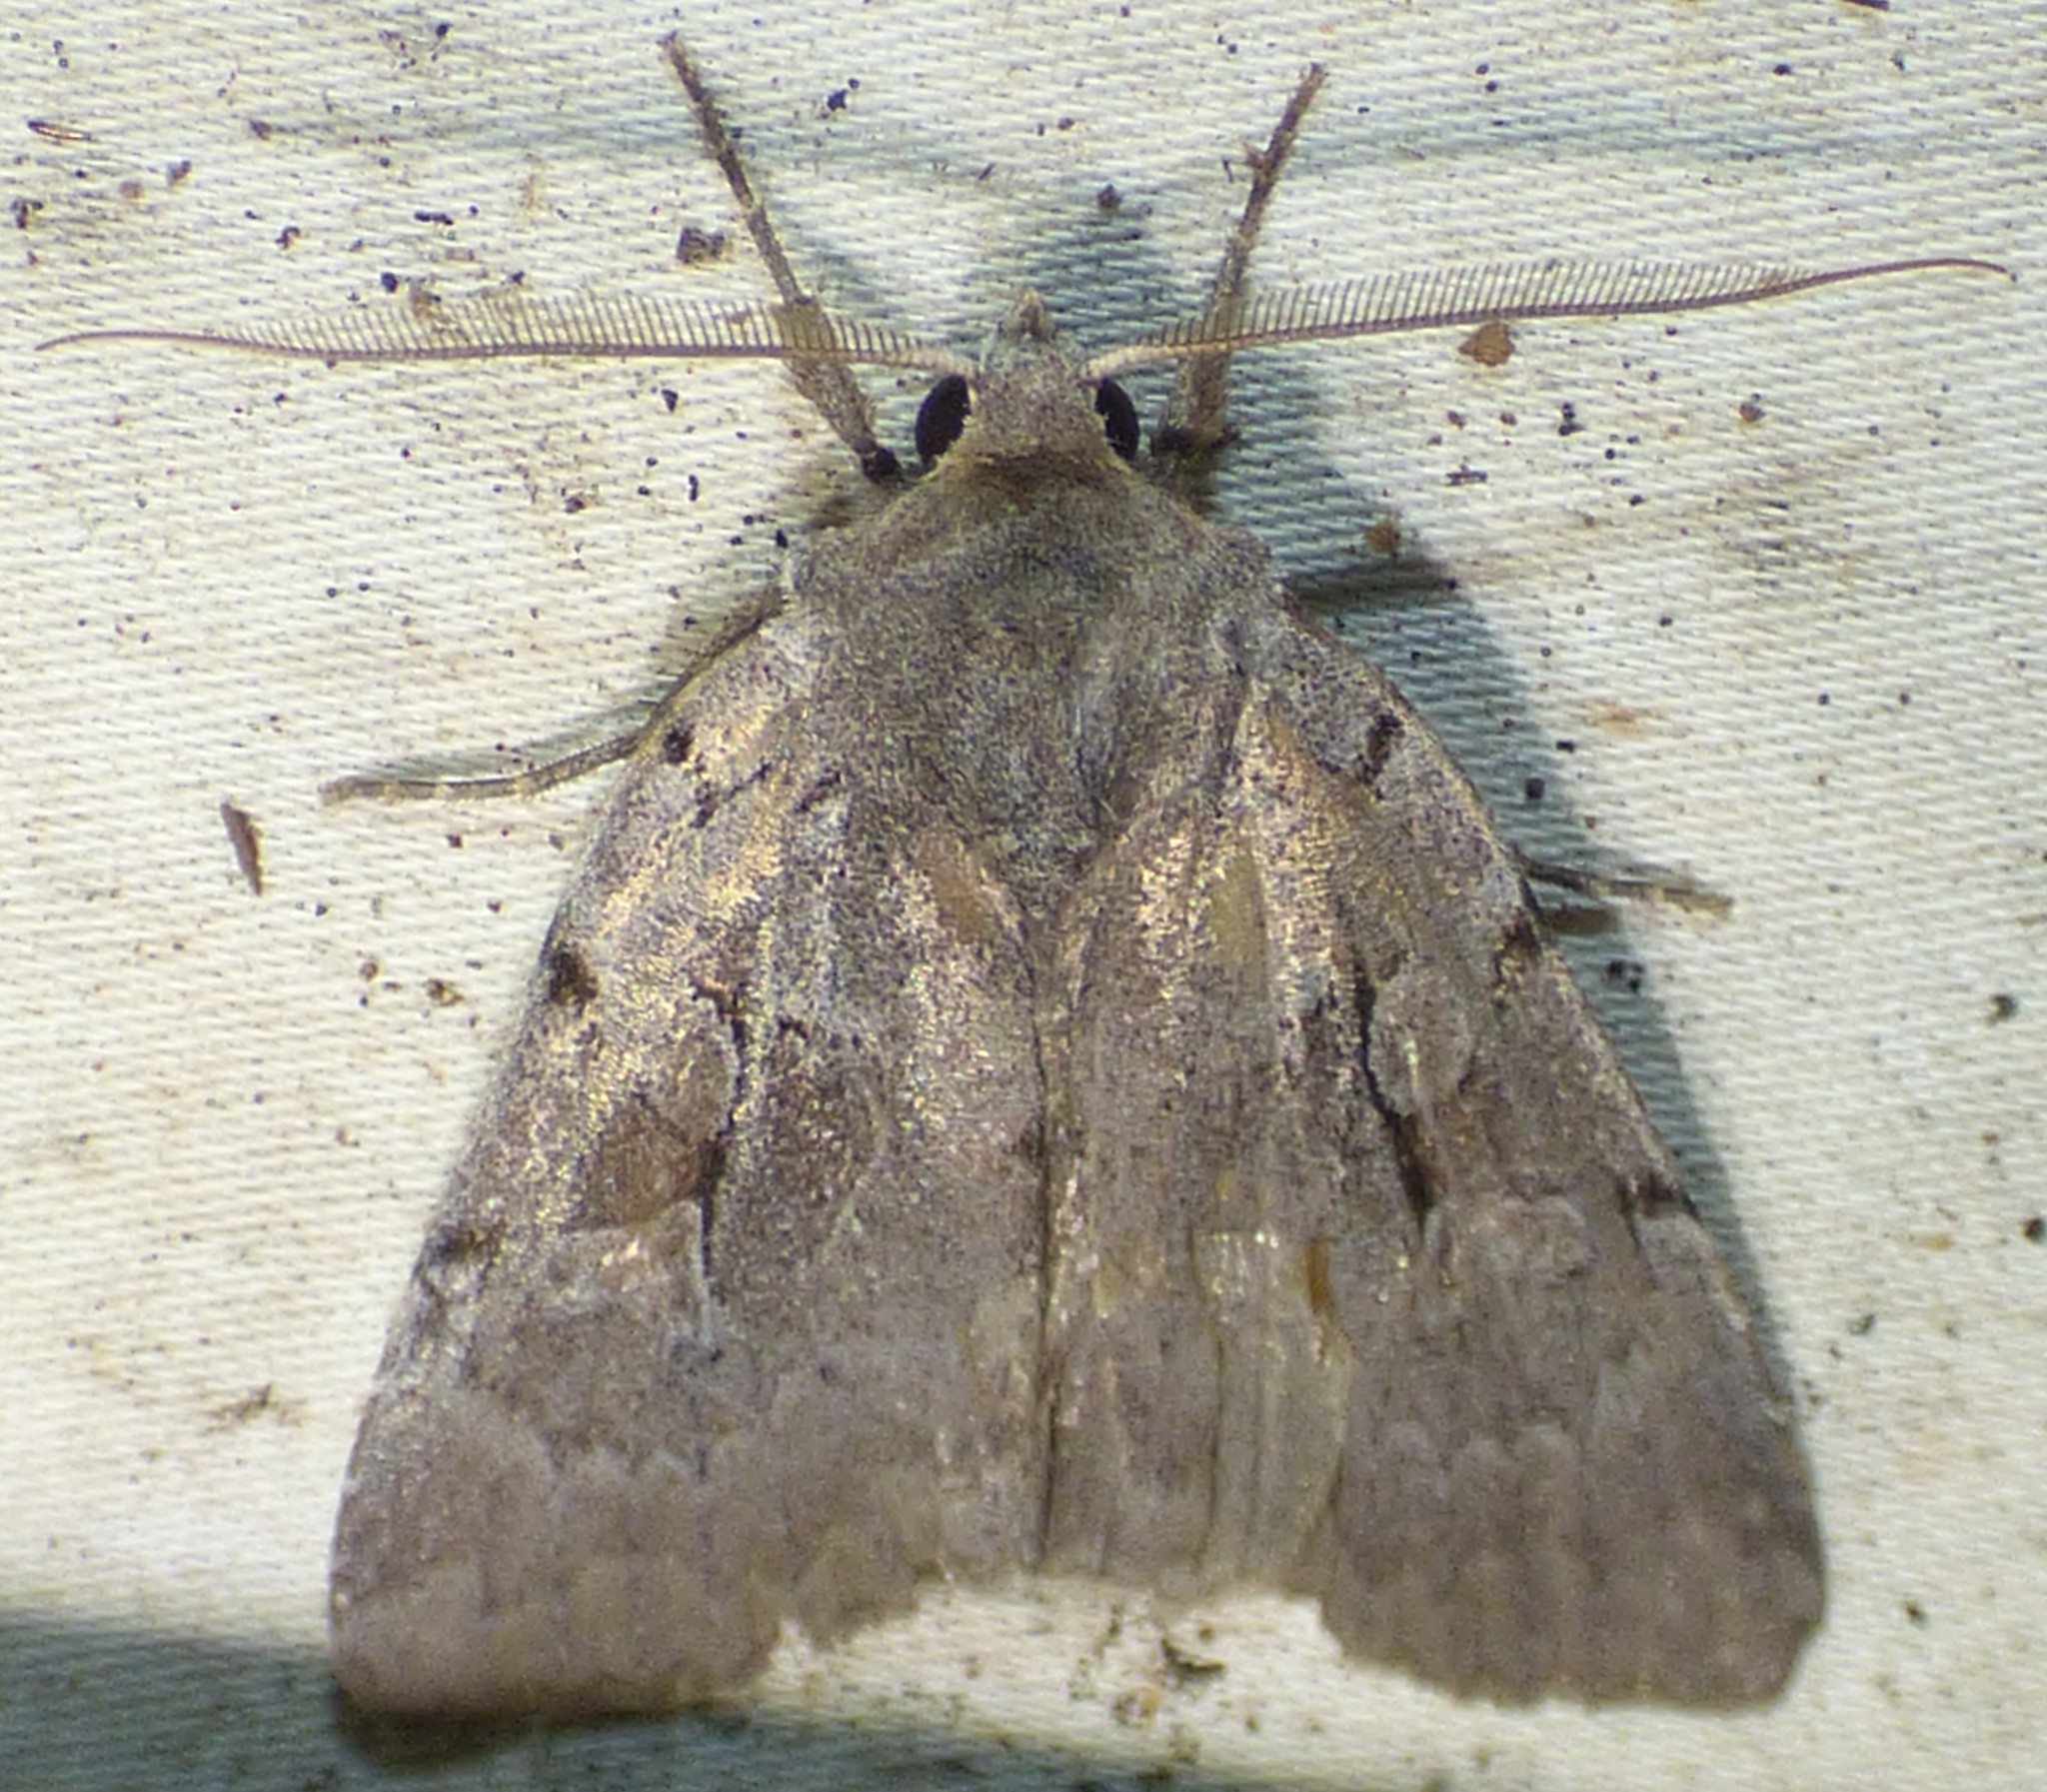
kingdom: Animalia
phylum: Arthropoda
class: Insecta
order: Lepidoptera
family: Noctuidae
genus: Xestia
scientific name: Xestia elimata
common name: Chameleon caterpillar
